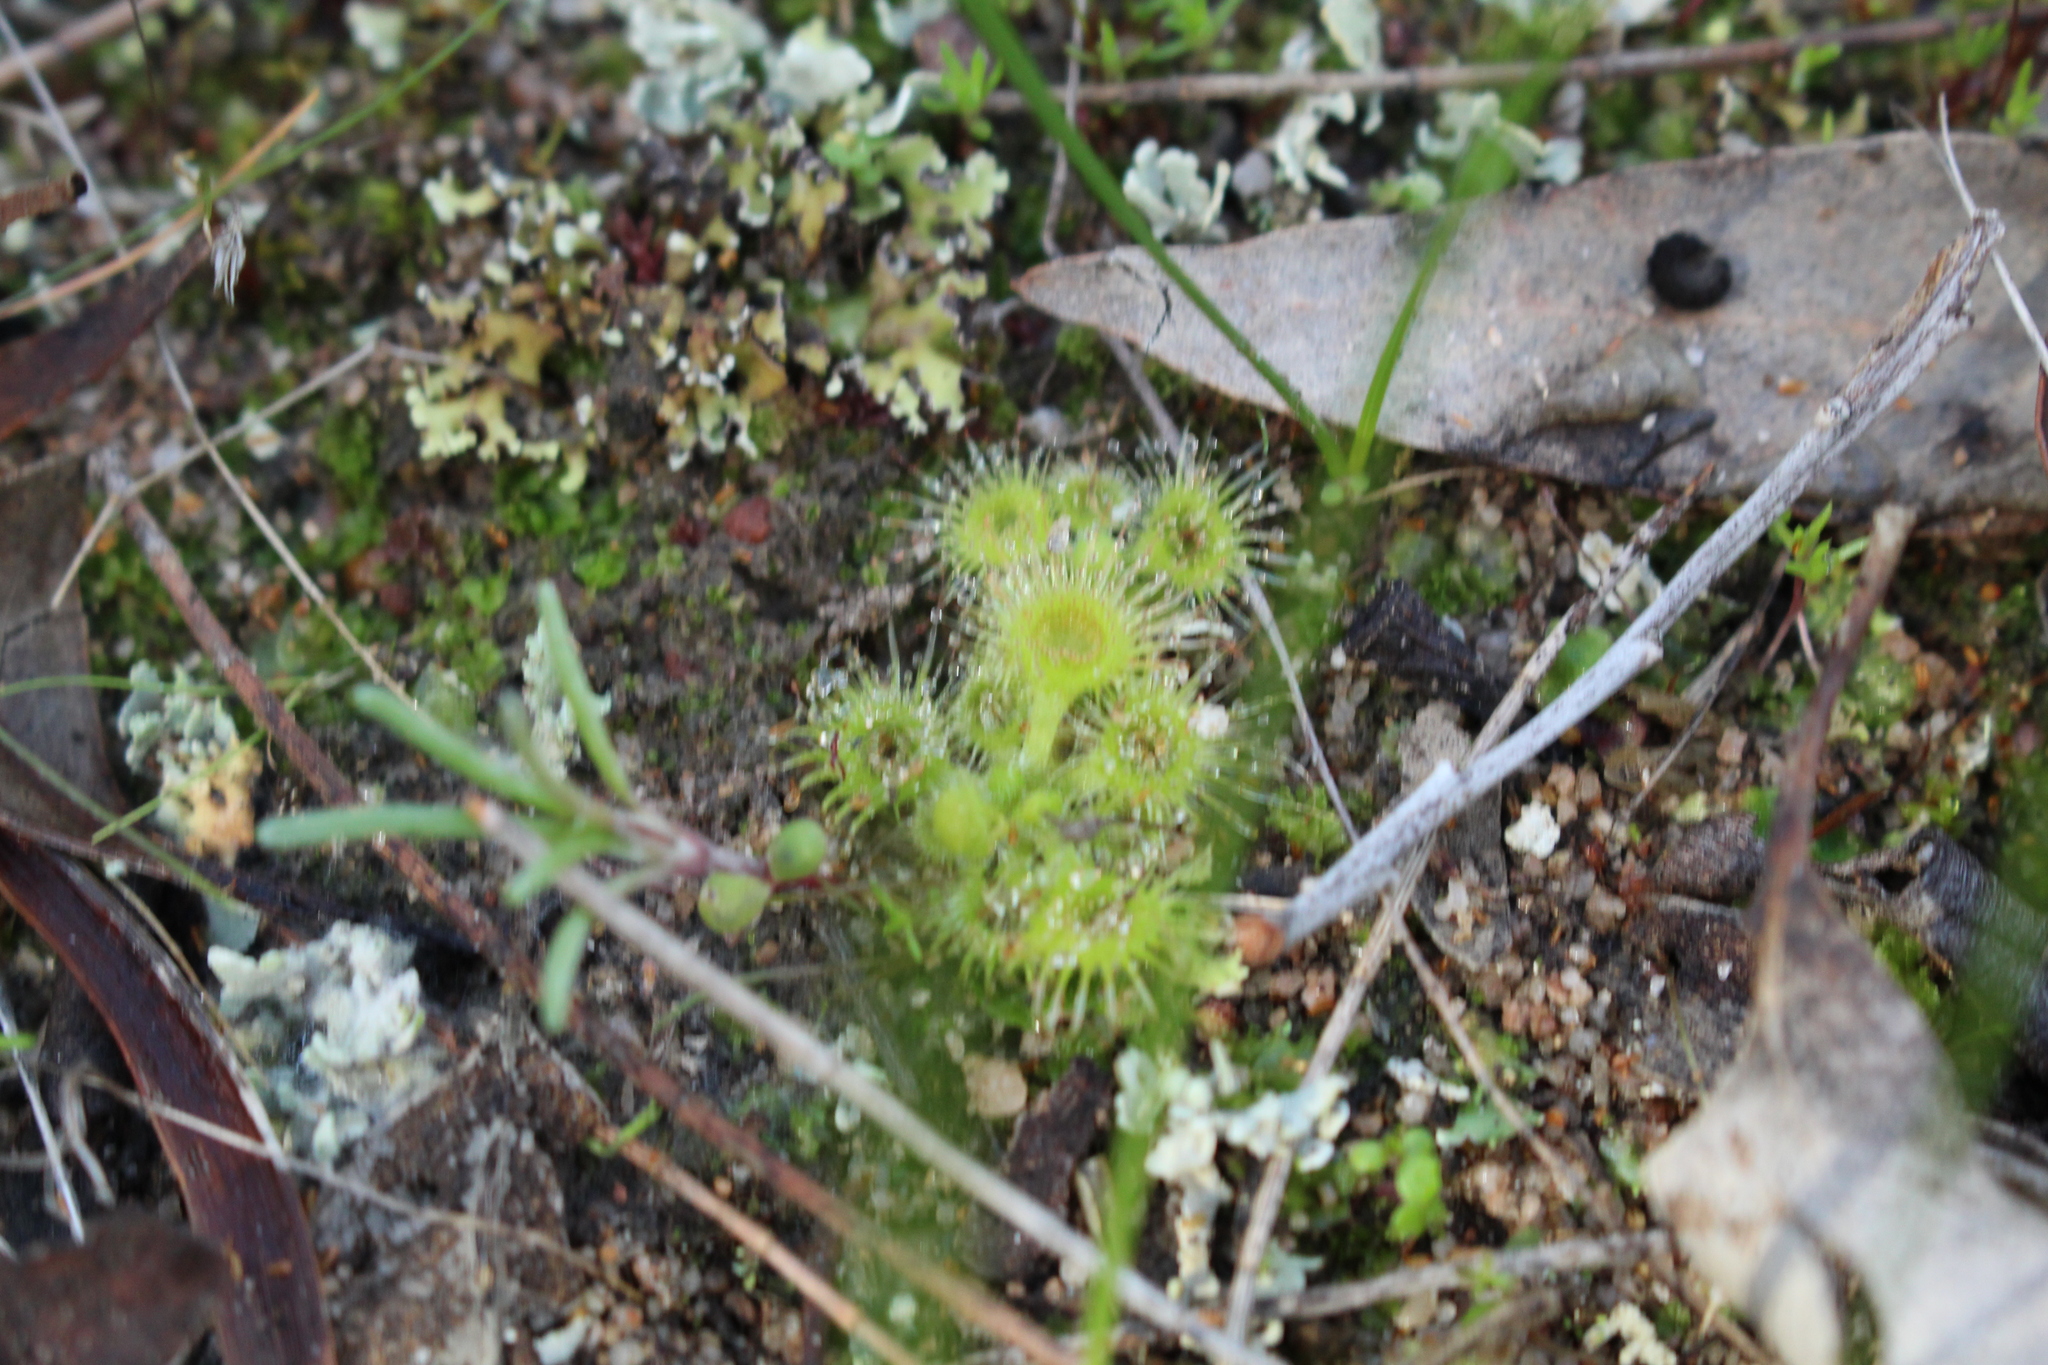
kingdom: Plantae
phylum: Tracheophyta
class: Magnoliopsida
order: Caryophyllales
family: Droseraceae
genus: Drosera
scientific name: Drosera glanduligera
